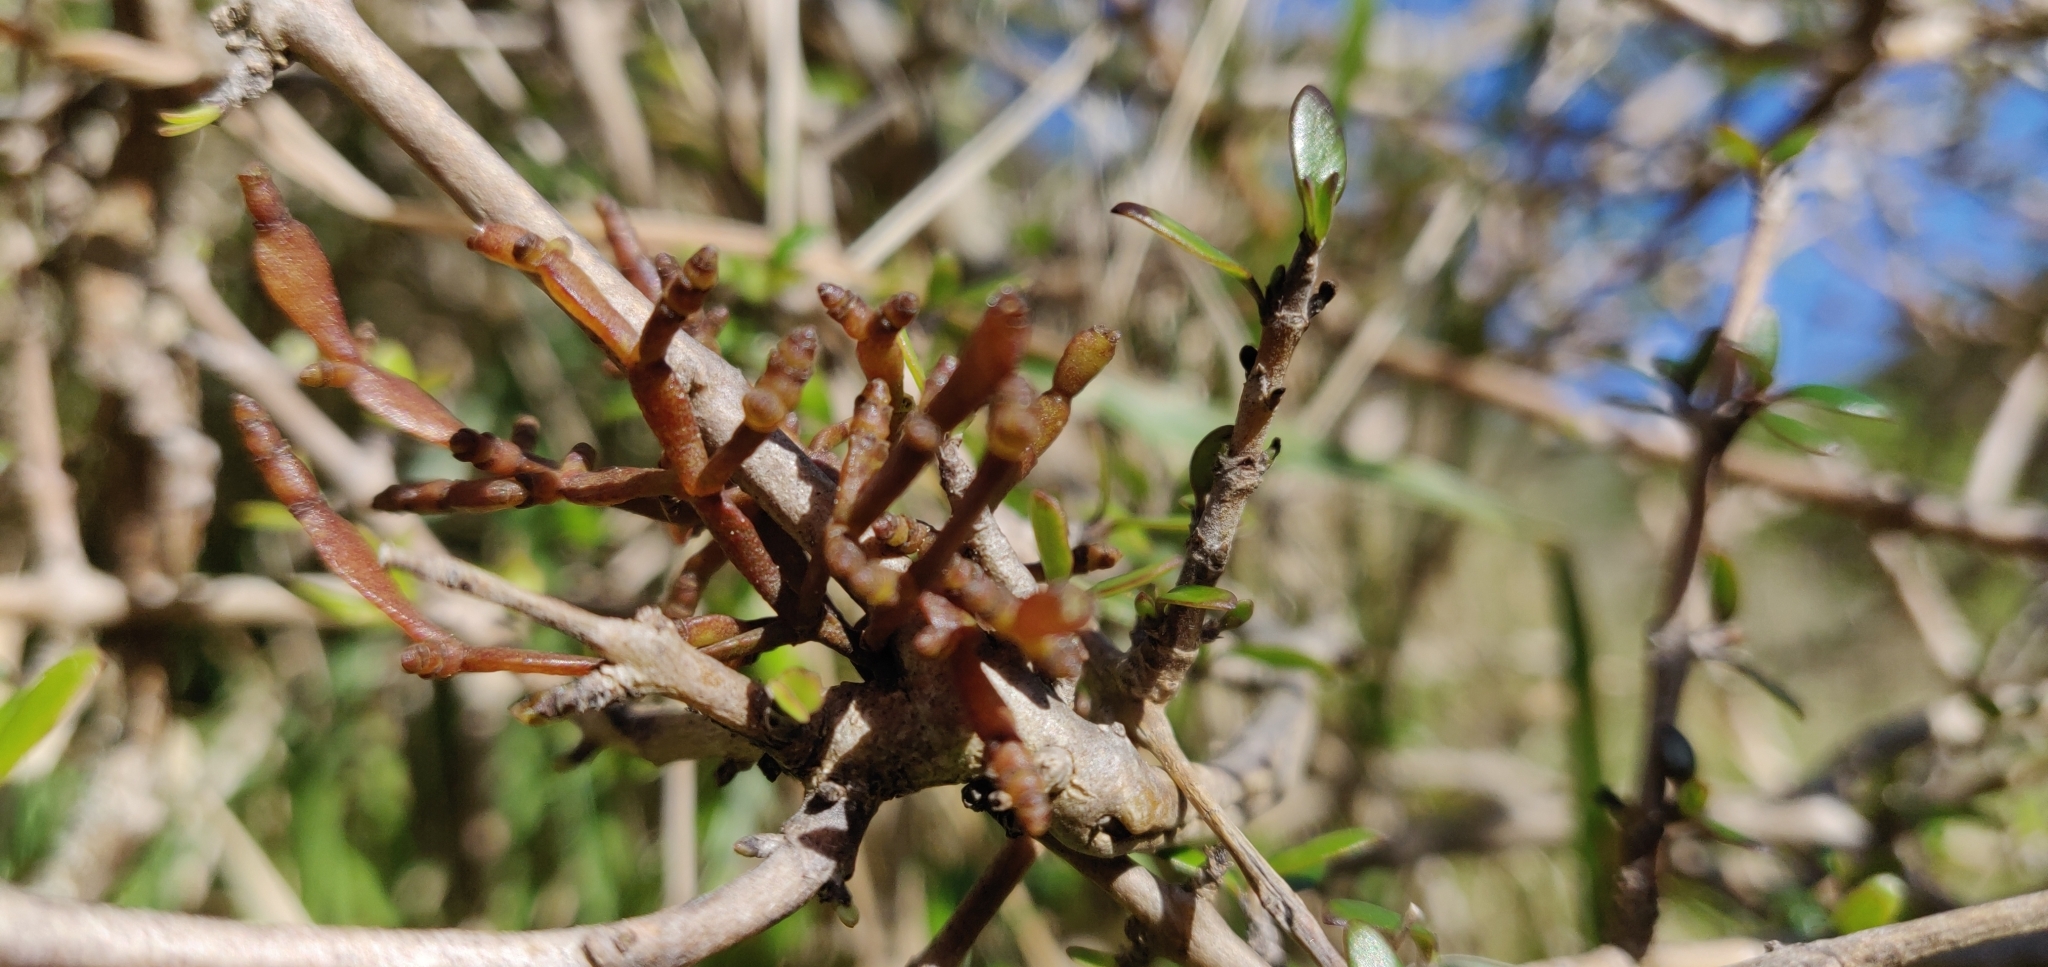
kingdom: Plantae
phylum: Tracheophyta
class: Magnoliopsida
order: Santalales
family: Viscaceae
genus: Korthalsella
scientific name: Korthalsella clavata
